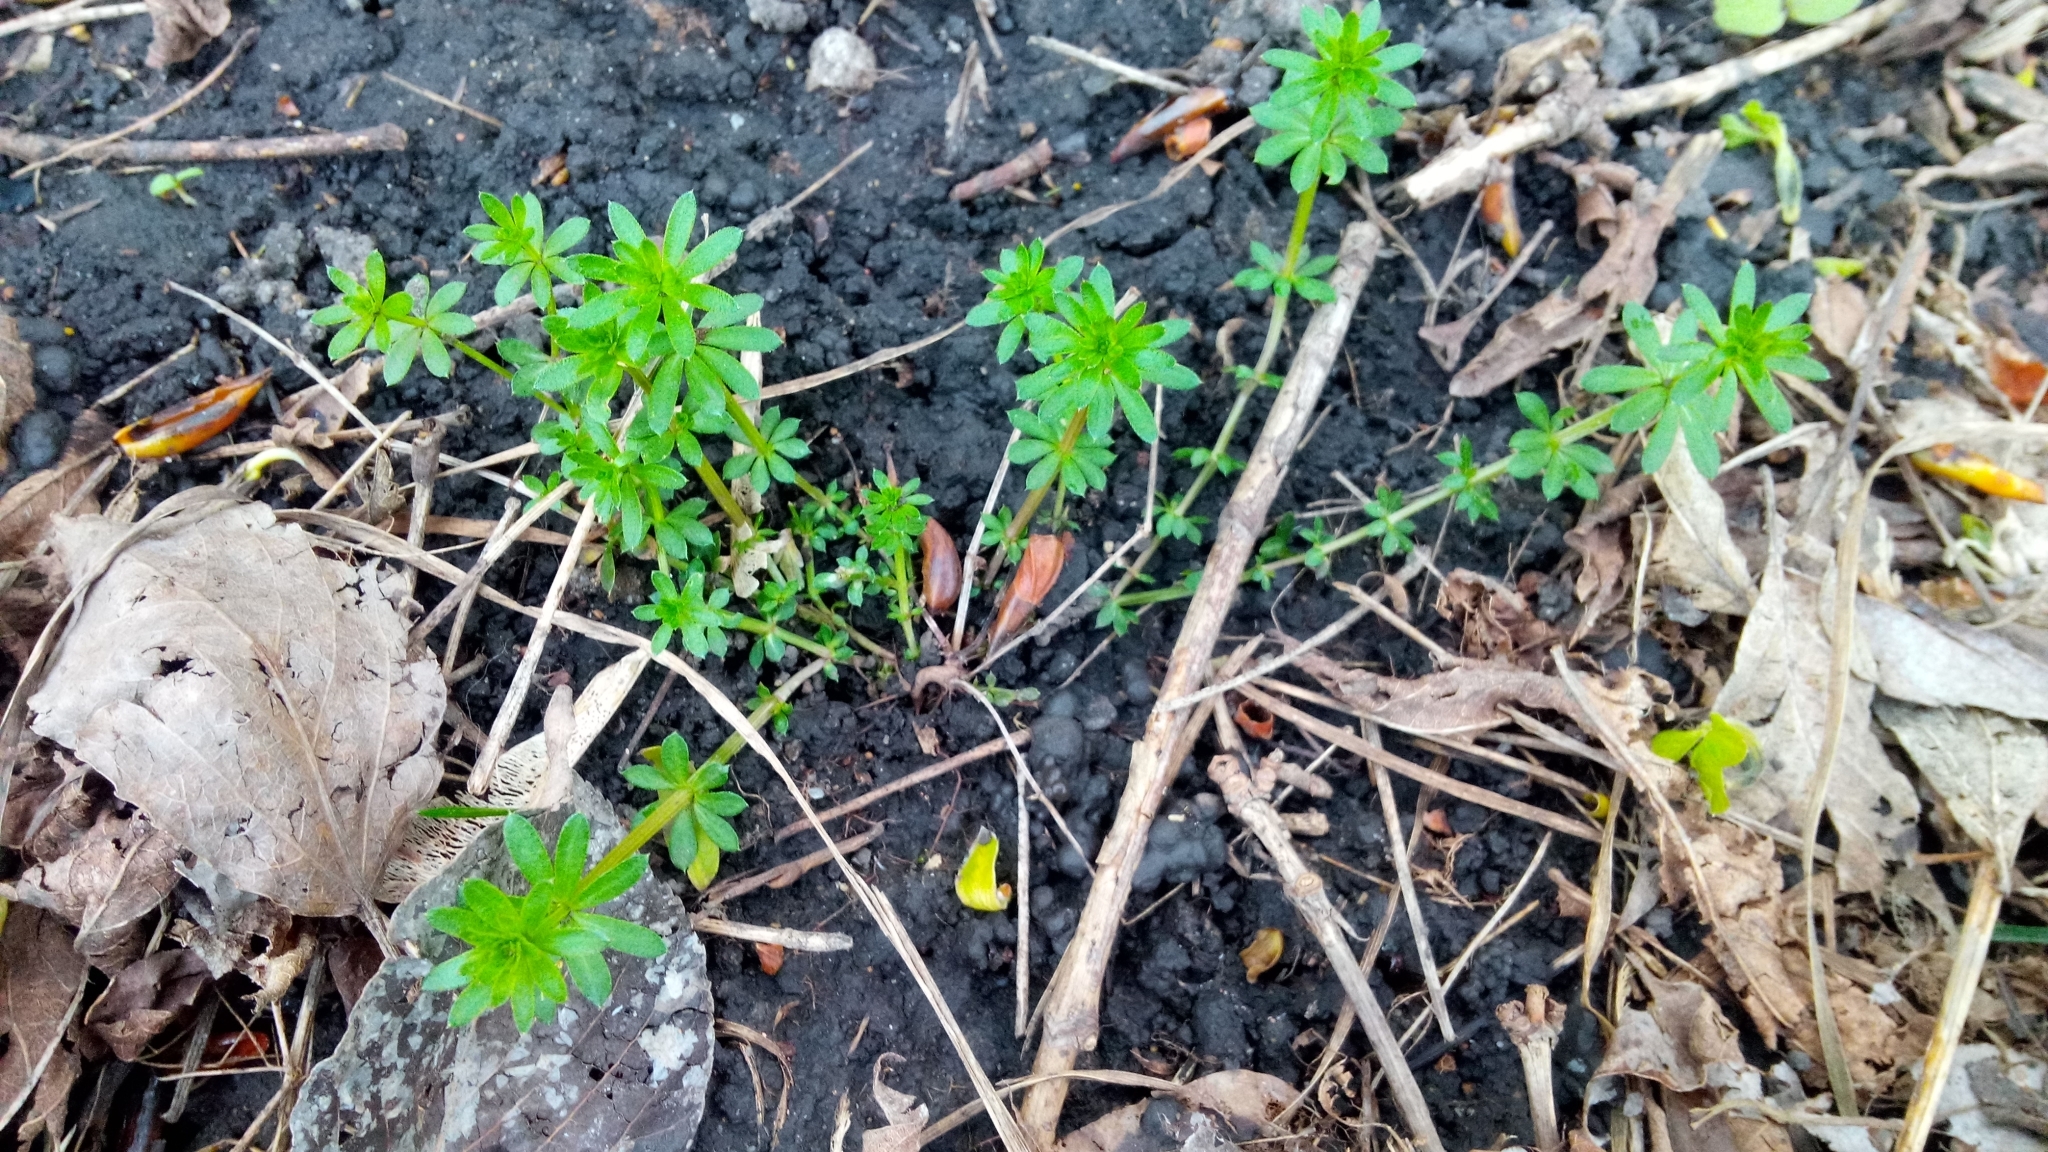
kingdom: Plantae
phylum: Tracheophyta
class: Magnoliopsida
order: Gentianales
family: Rubiaceae
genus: Galium
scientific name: Galium mollugo
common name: Hedge bedstraw
